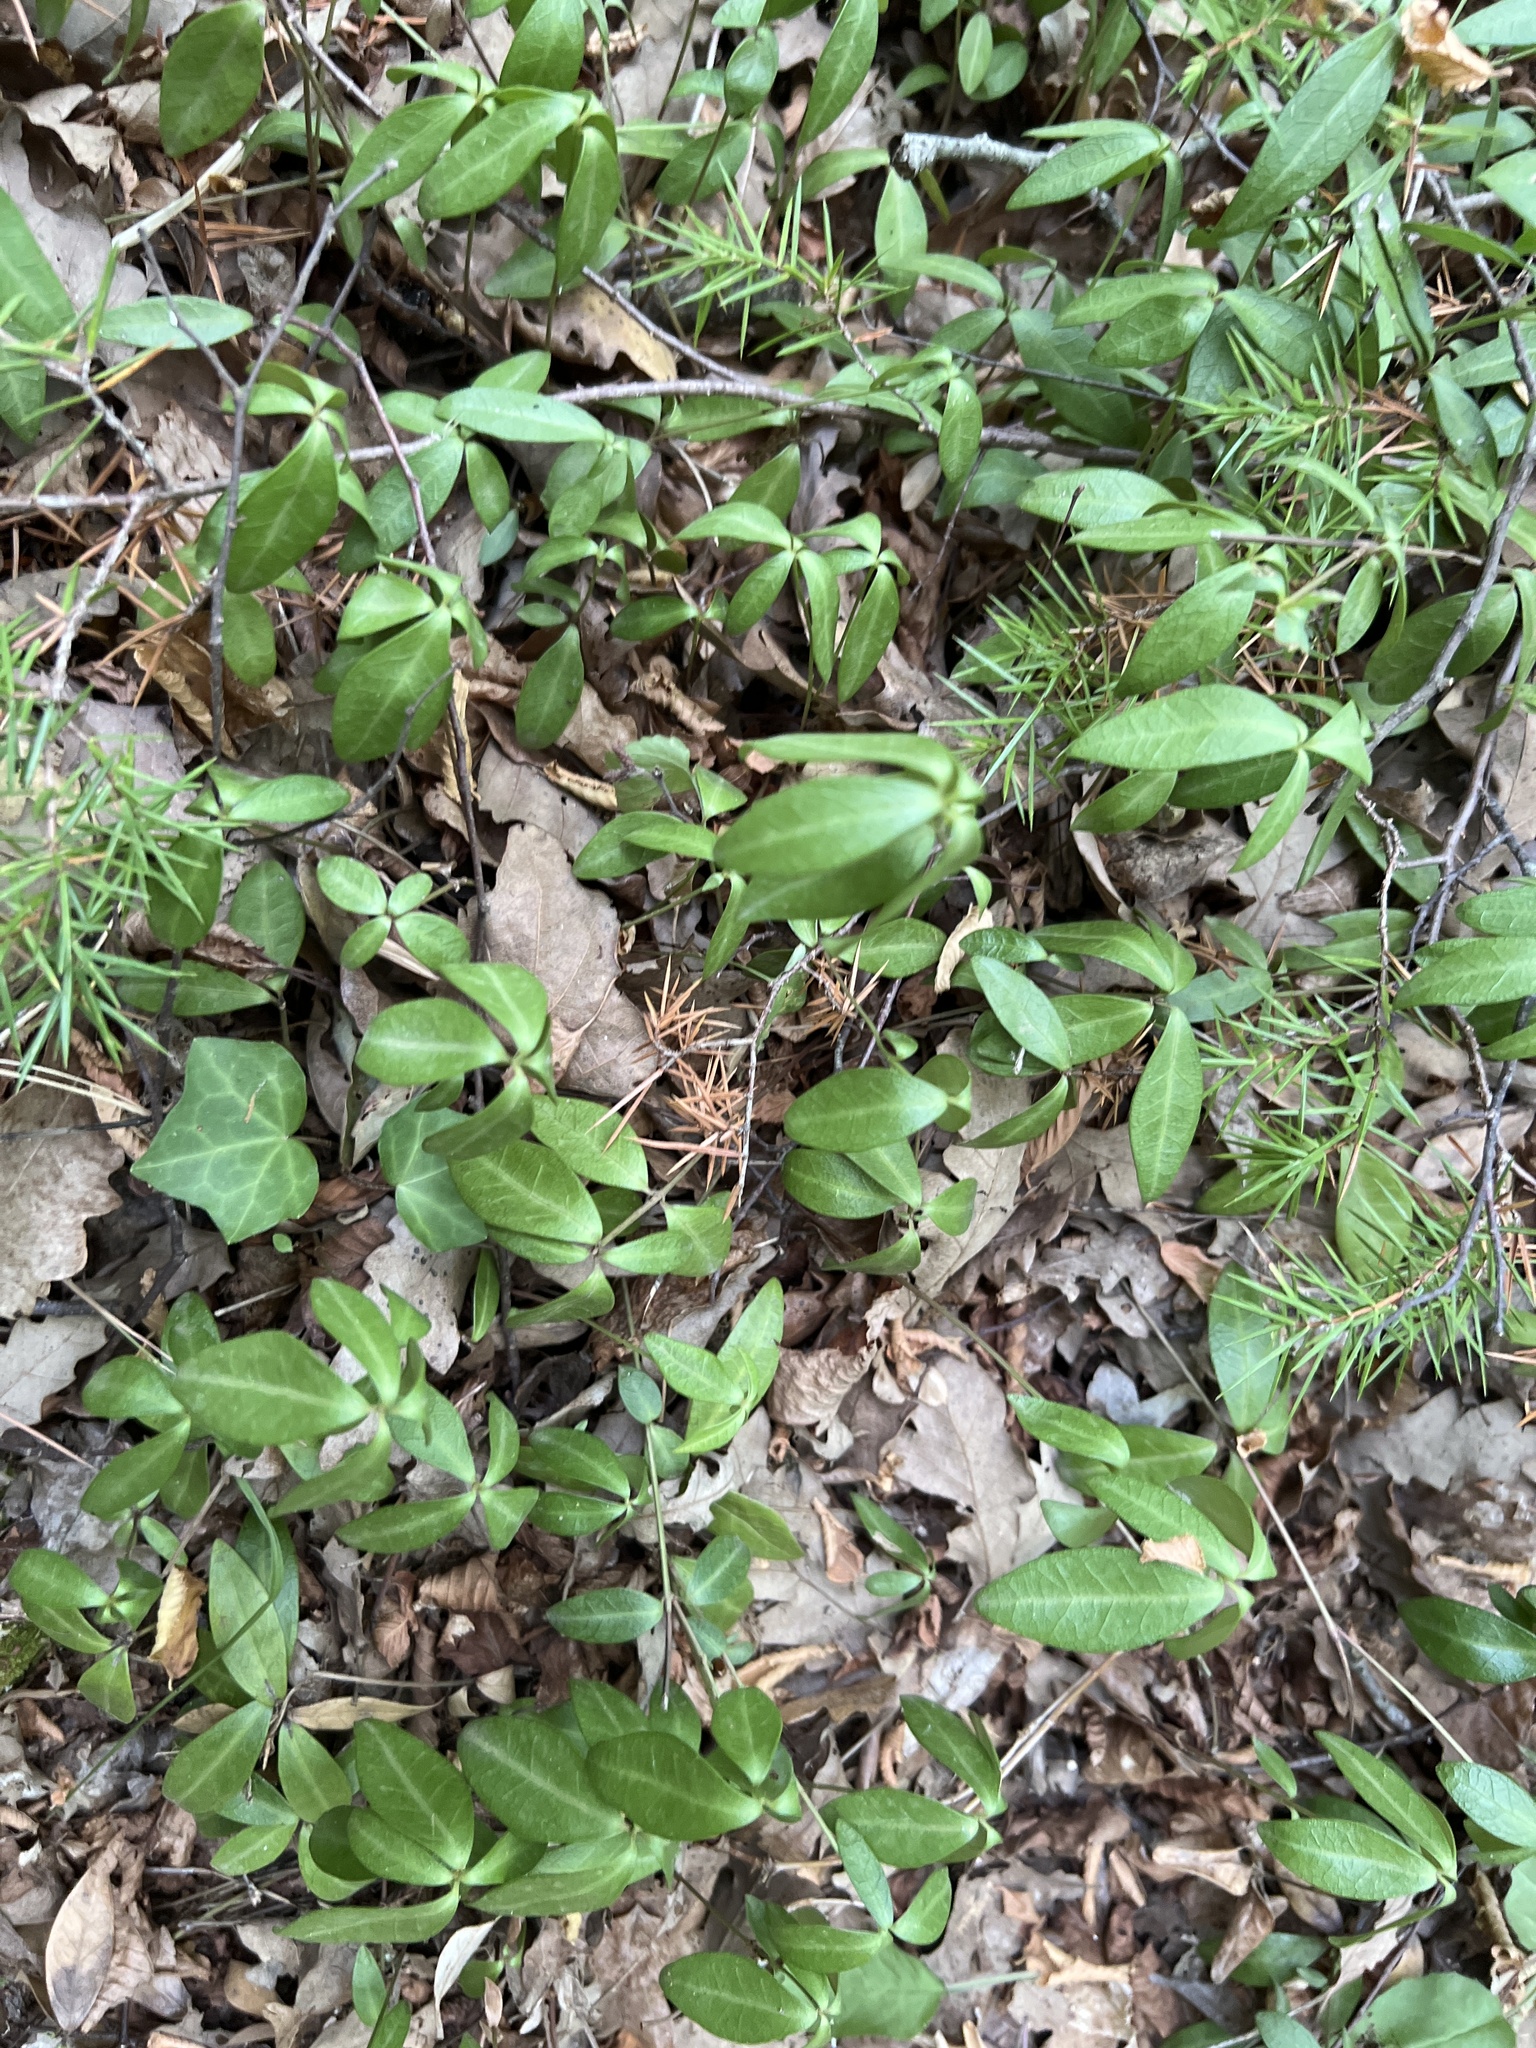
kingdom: Plantae
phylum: Tracheophyta
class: Magnoliopsida
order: Gentianales
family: Apocynaceae
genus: Vinca
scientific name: Vinca minor
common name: Lesser periwinkle
